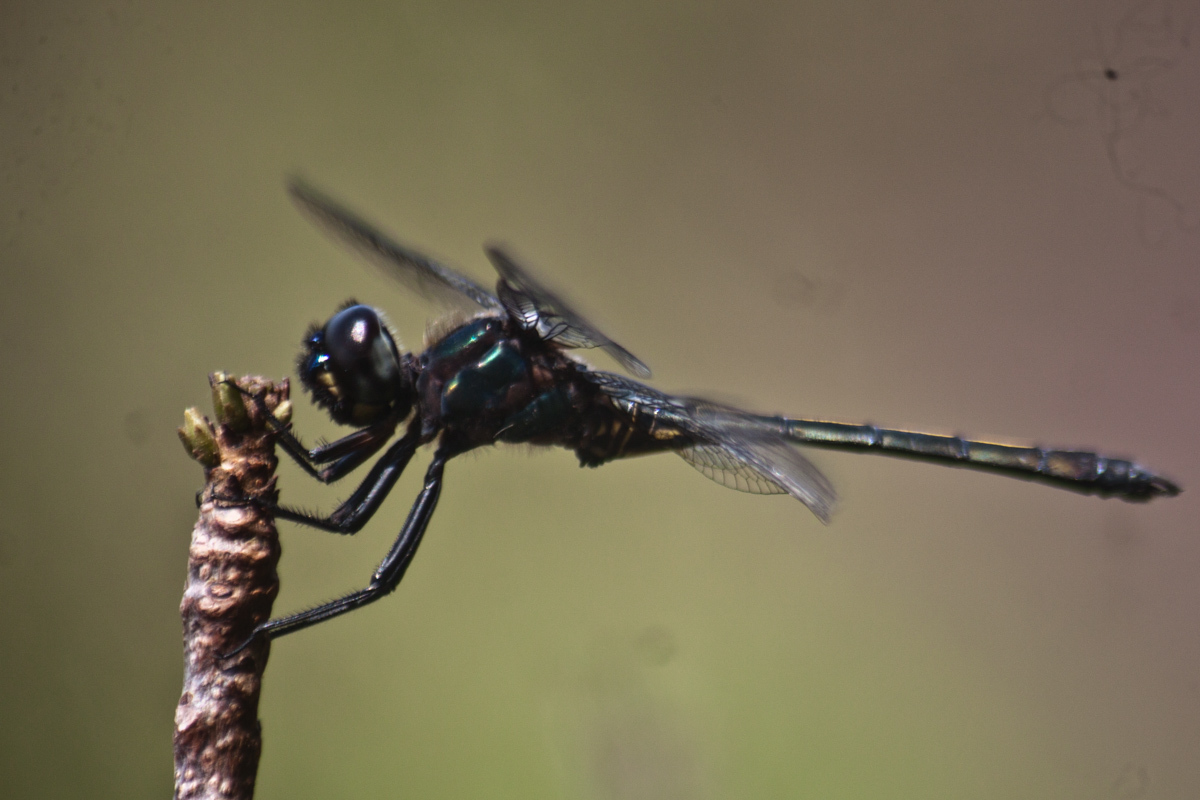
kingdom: Animalia
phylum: Arthropoda
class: Insecta
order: Odonata
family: Libellulidae
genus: Zygonyx
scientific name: Zygonyx iris
